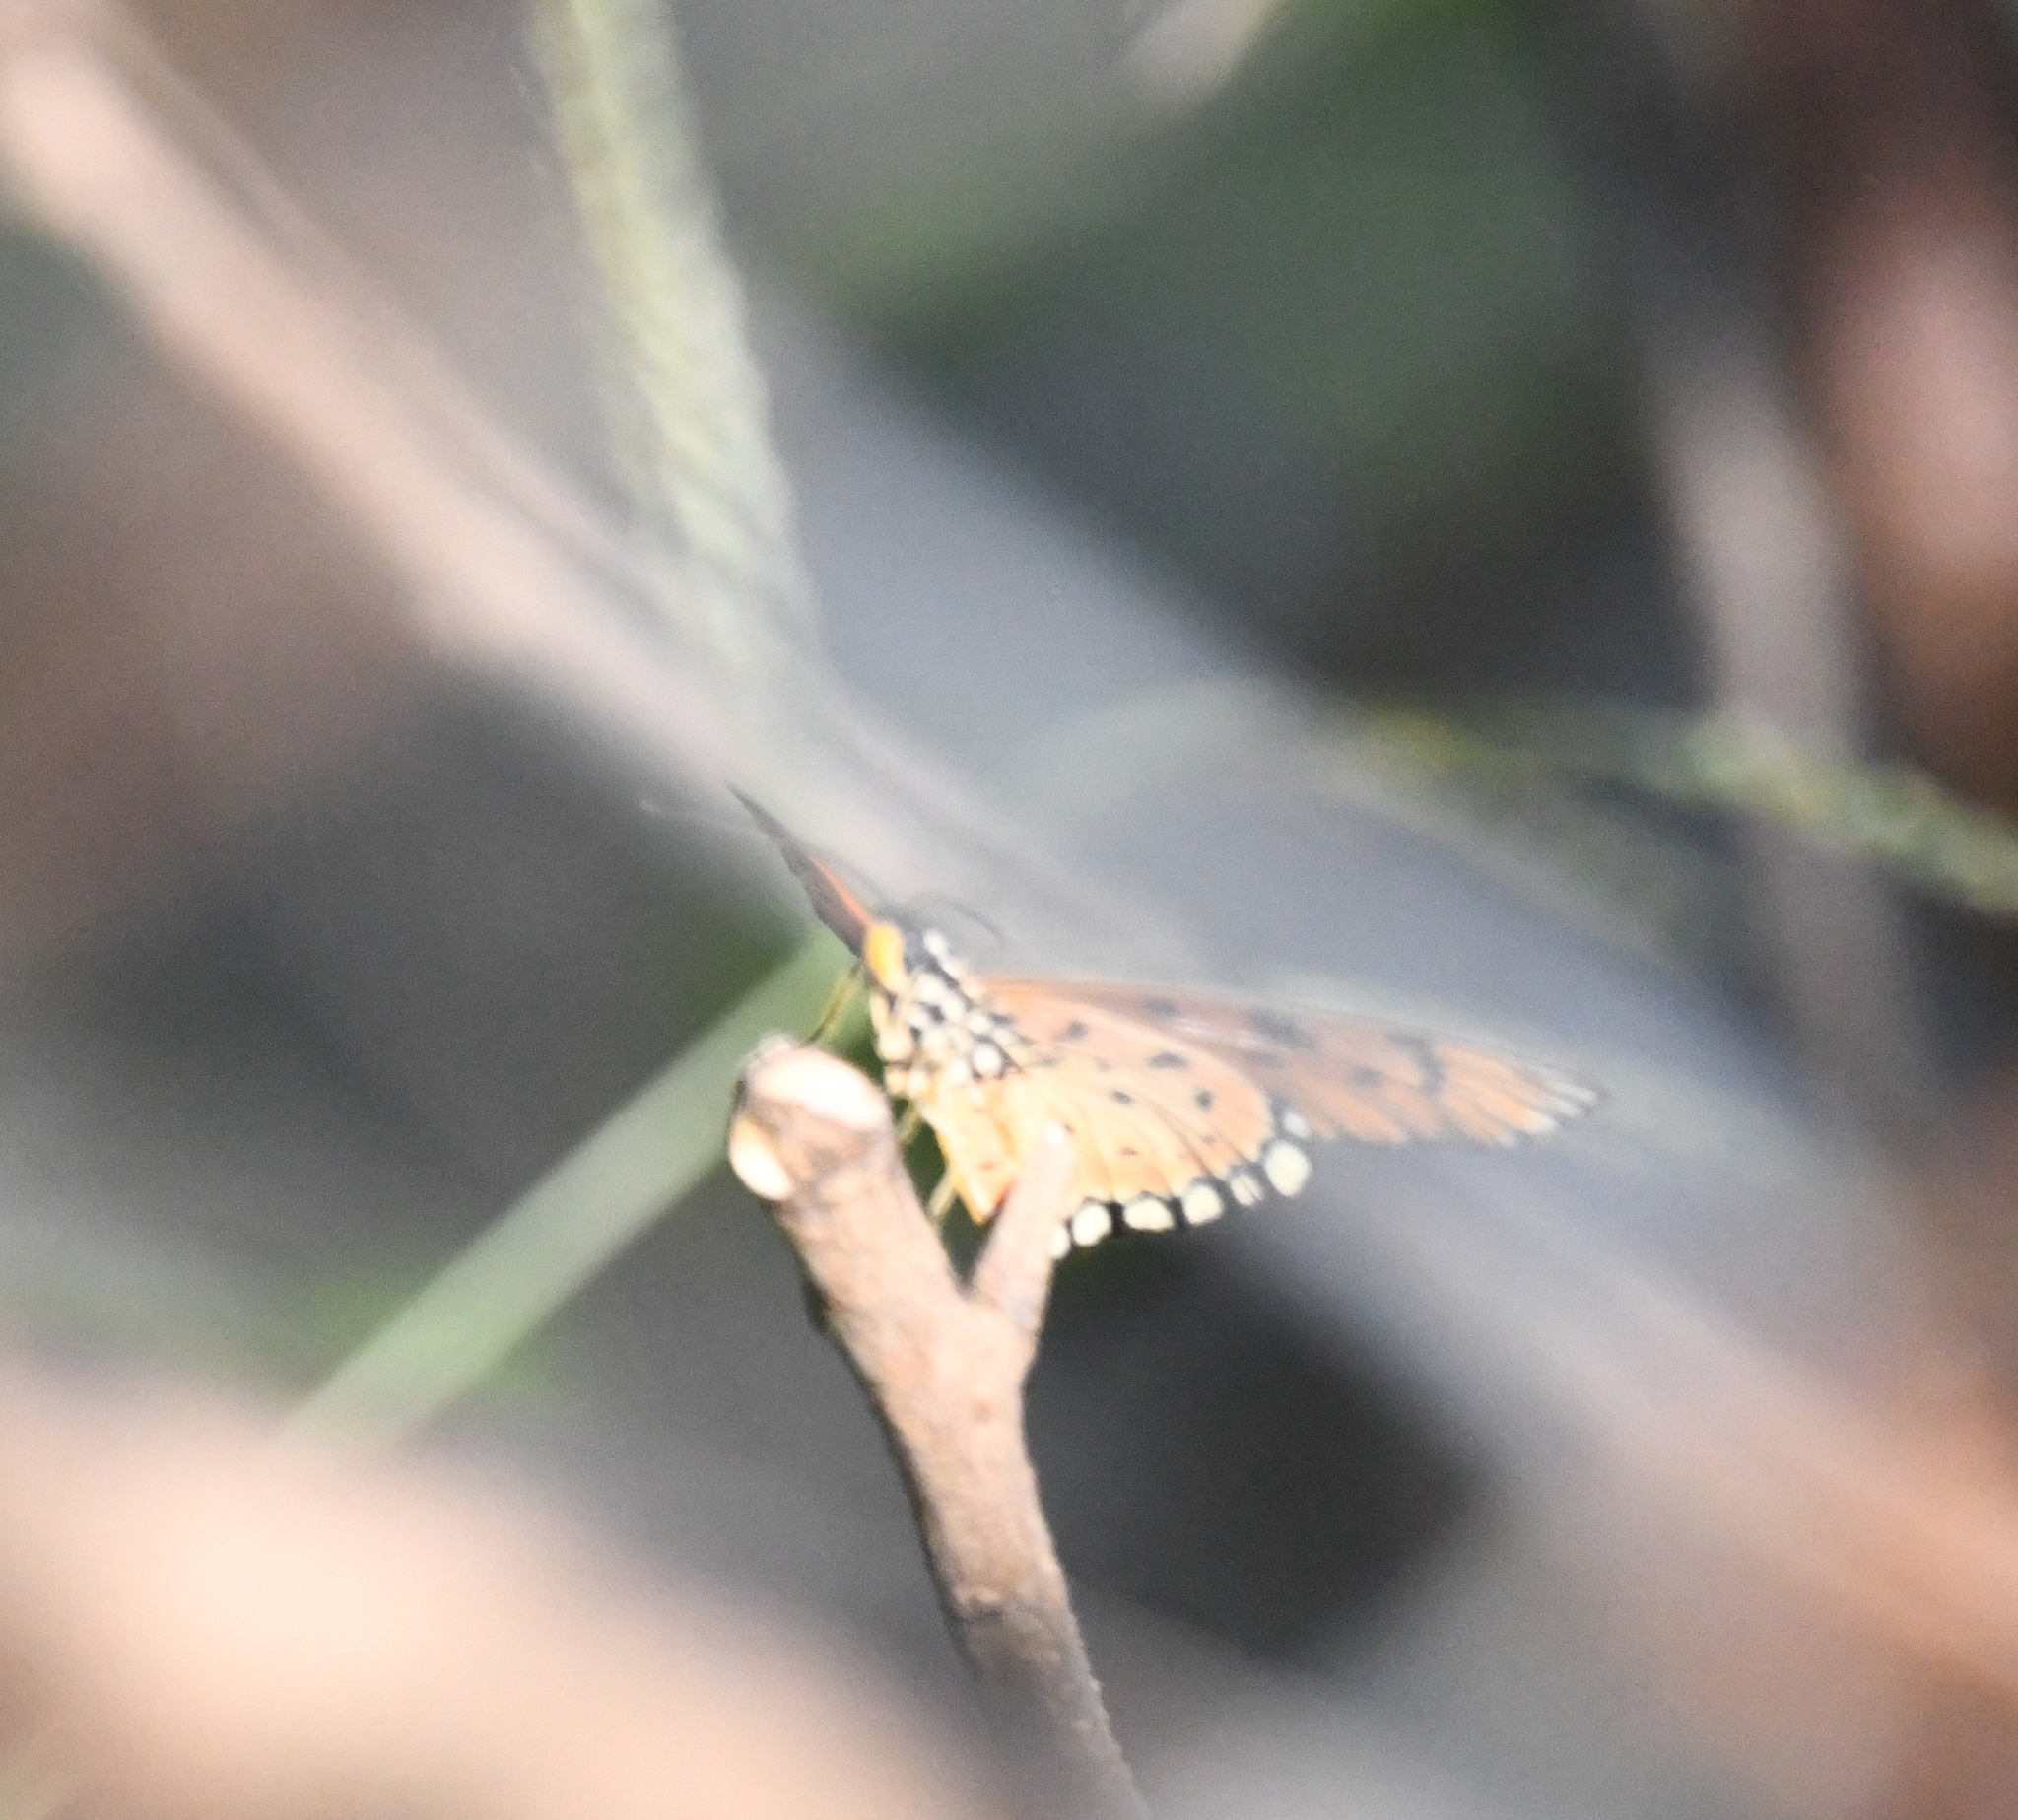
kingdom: Animalia
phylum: Arthropoda
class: Insecta
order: Lepidoptera
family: Nymphalidae
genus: Acraea
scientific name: Acraea terpsicore
